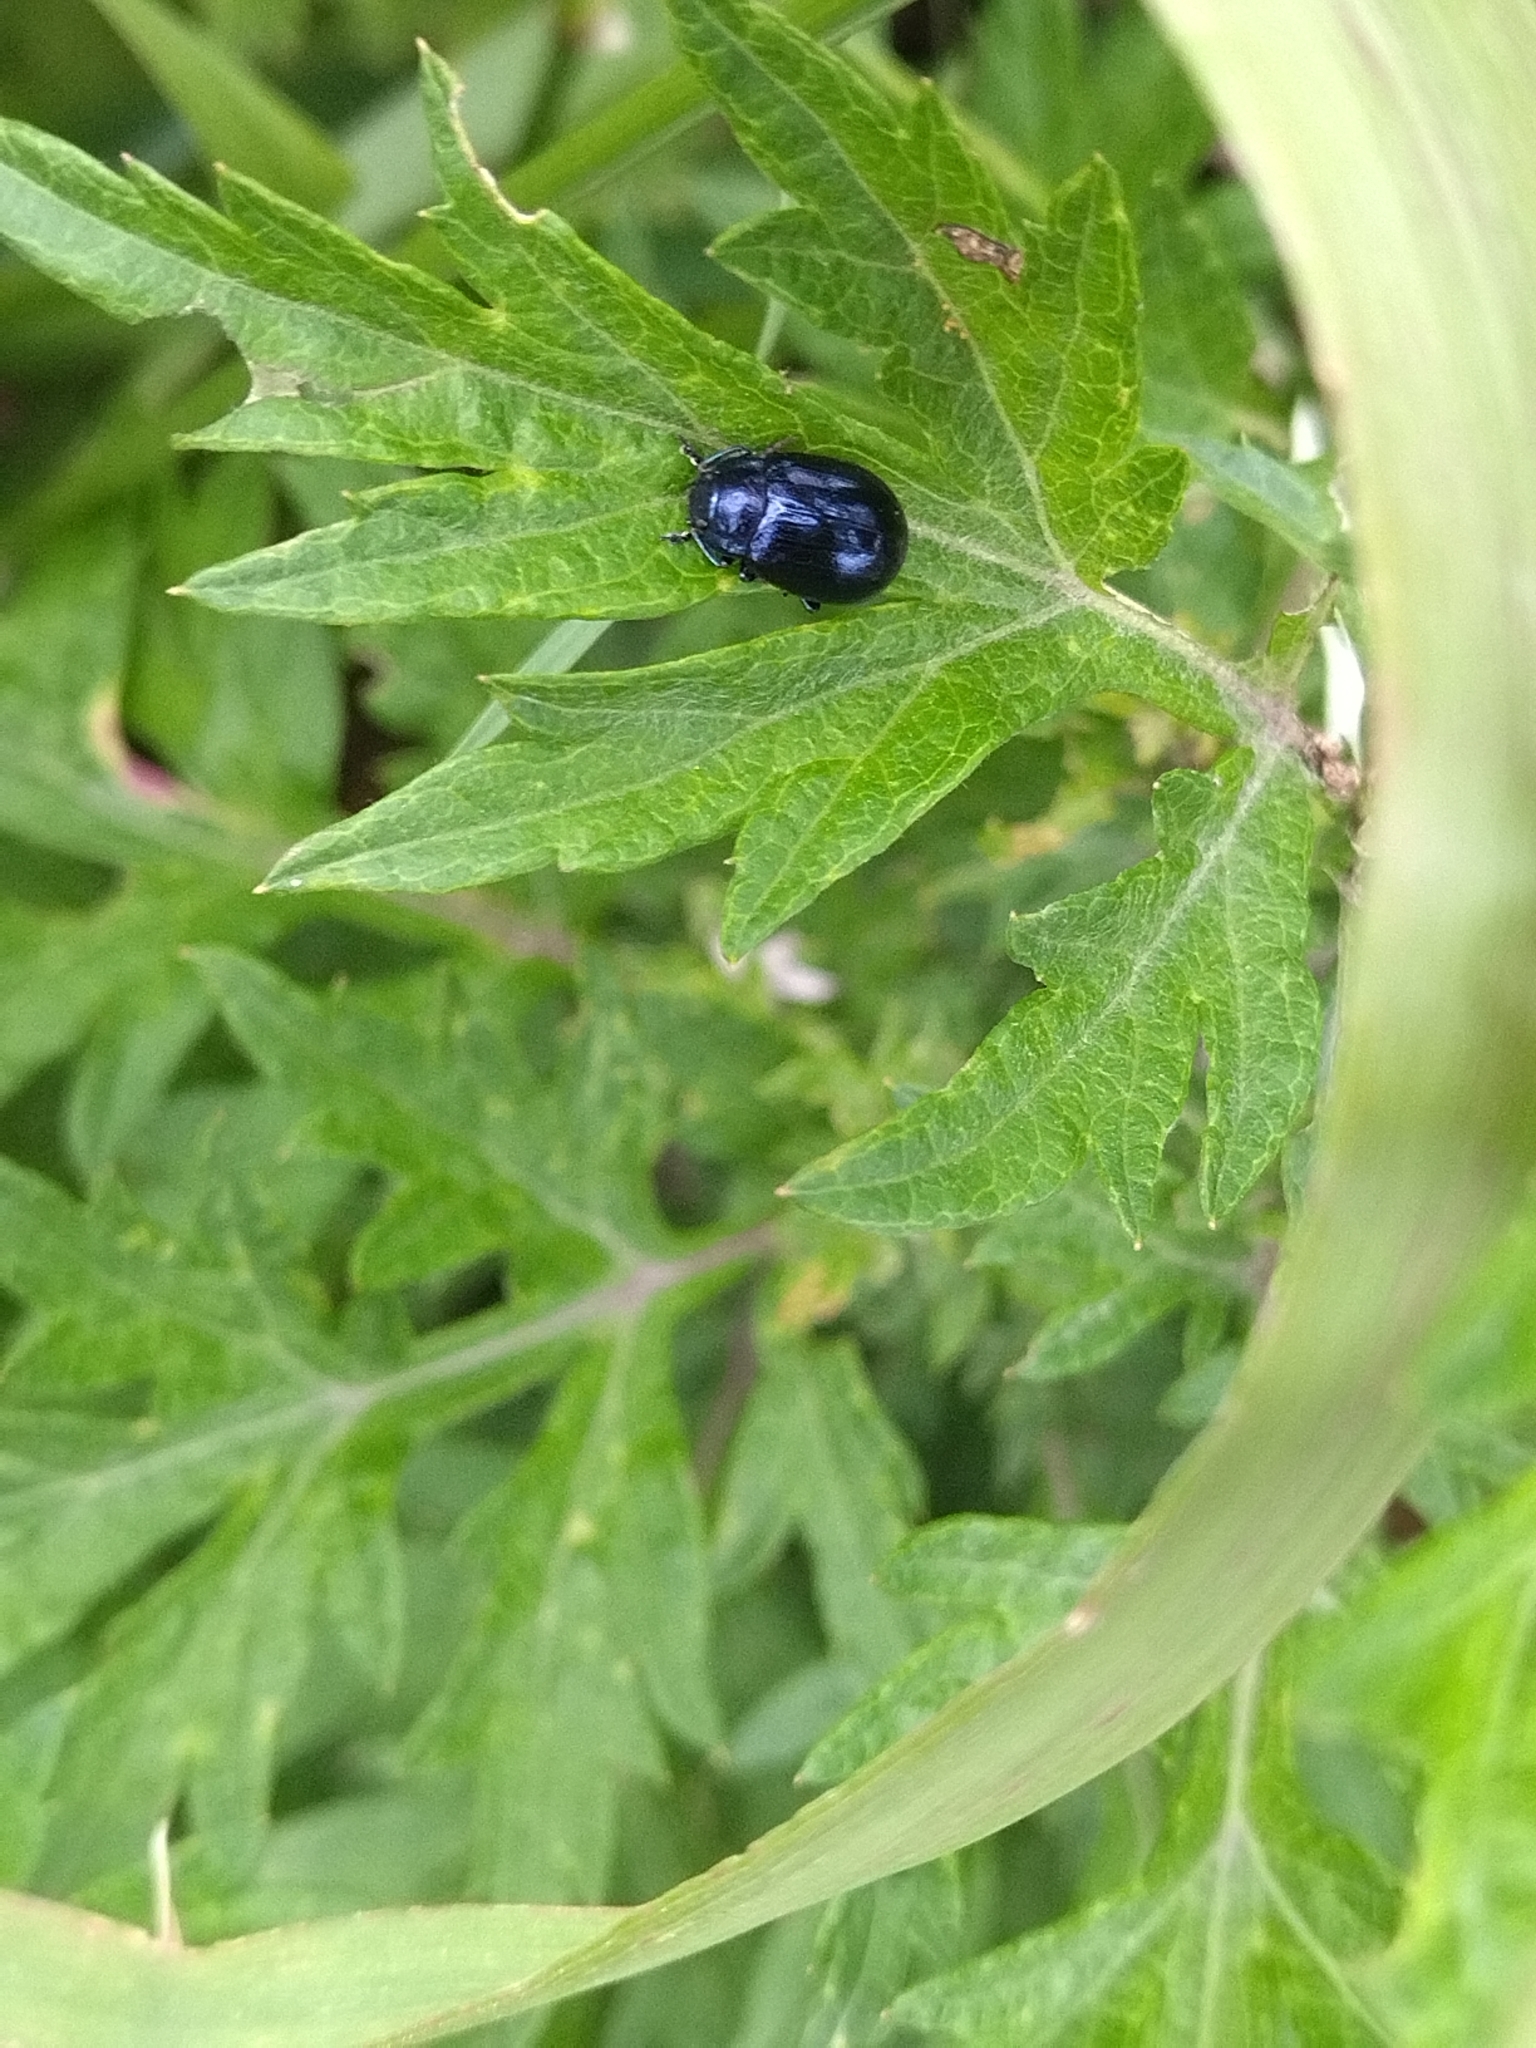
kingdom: Animalia
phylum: Arthropoda
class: Insecta
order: Coleoptera
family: Chrysomelidae
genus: Chrysolina
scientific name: Chrysolina aurichalcea
